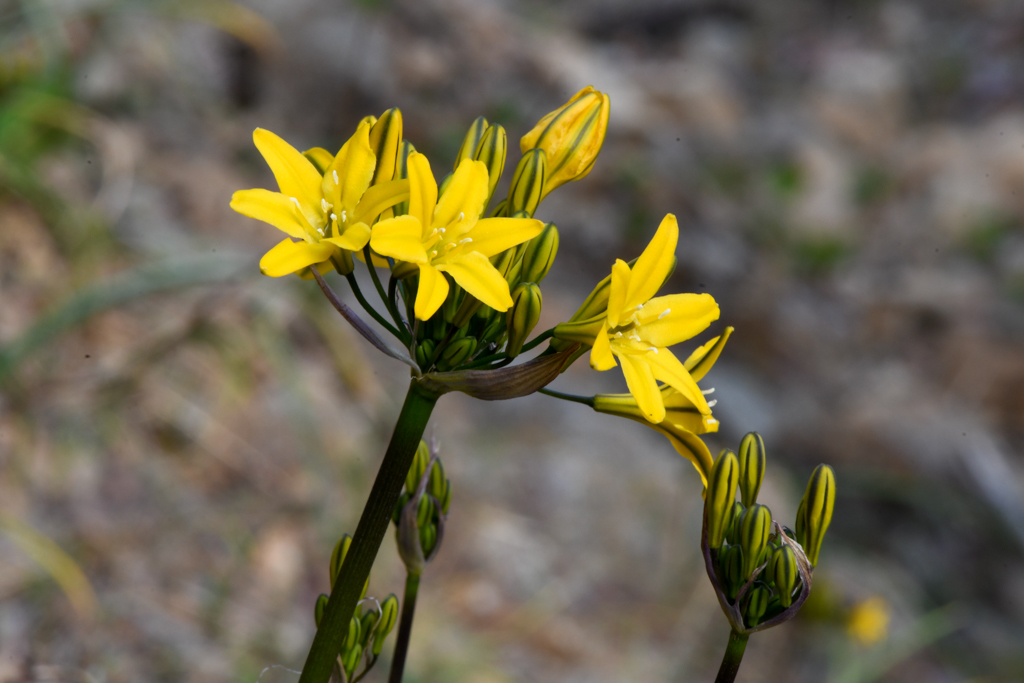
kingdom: Plantae
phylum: Tracheophyta
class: Liliopsida
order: Asparagales
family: Asparagaceae
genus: Triteleia
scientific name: Triteleia crocea
